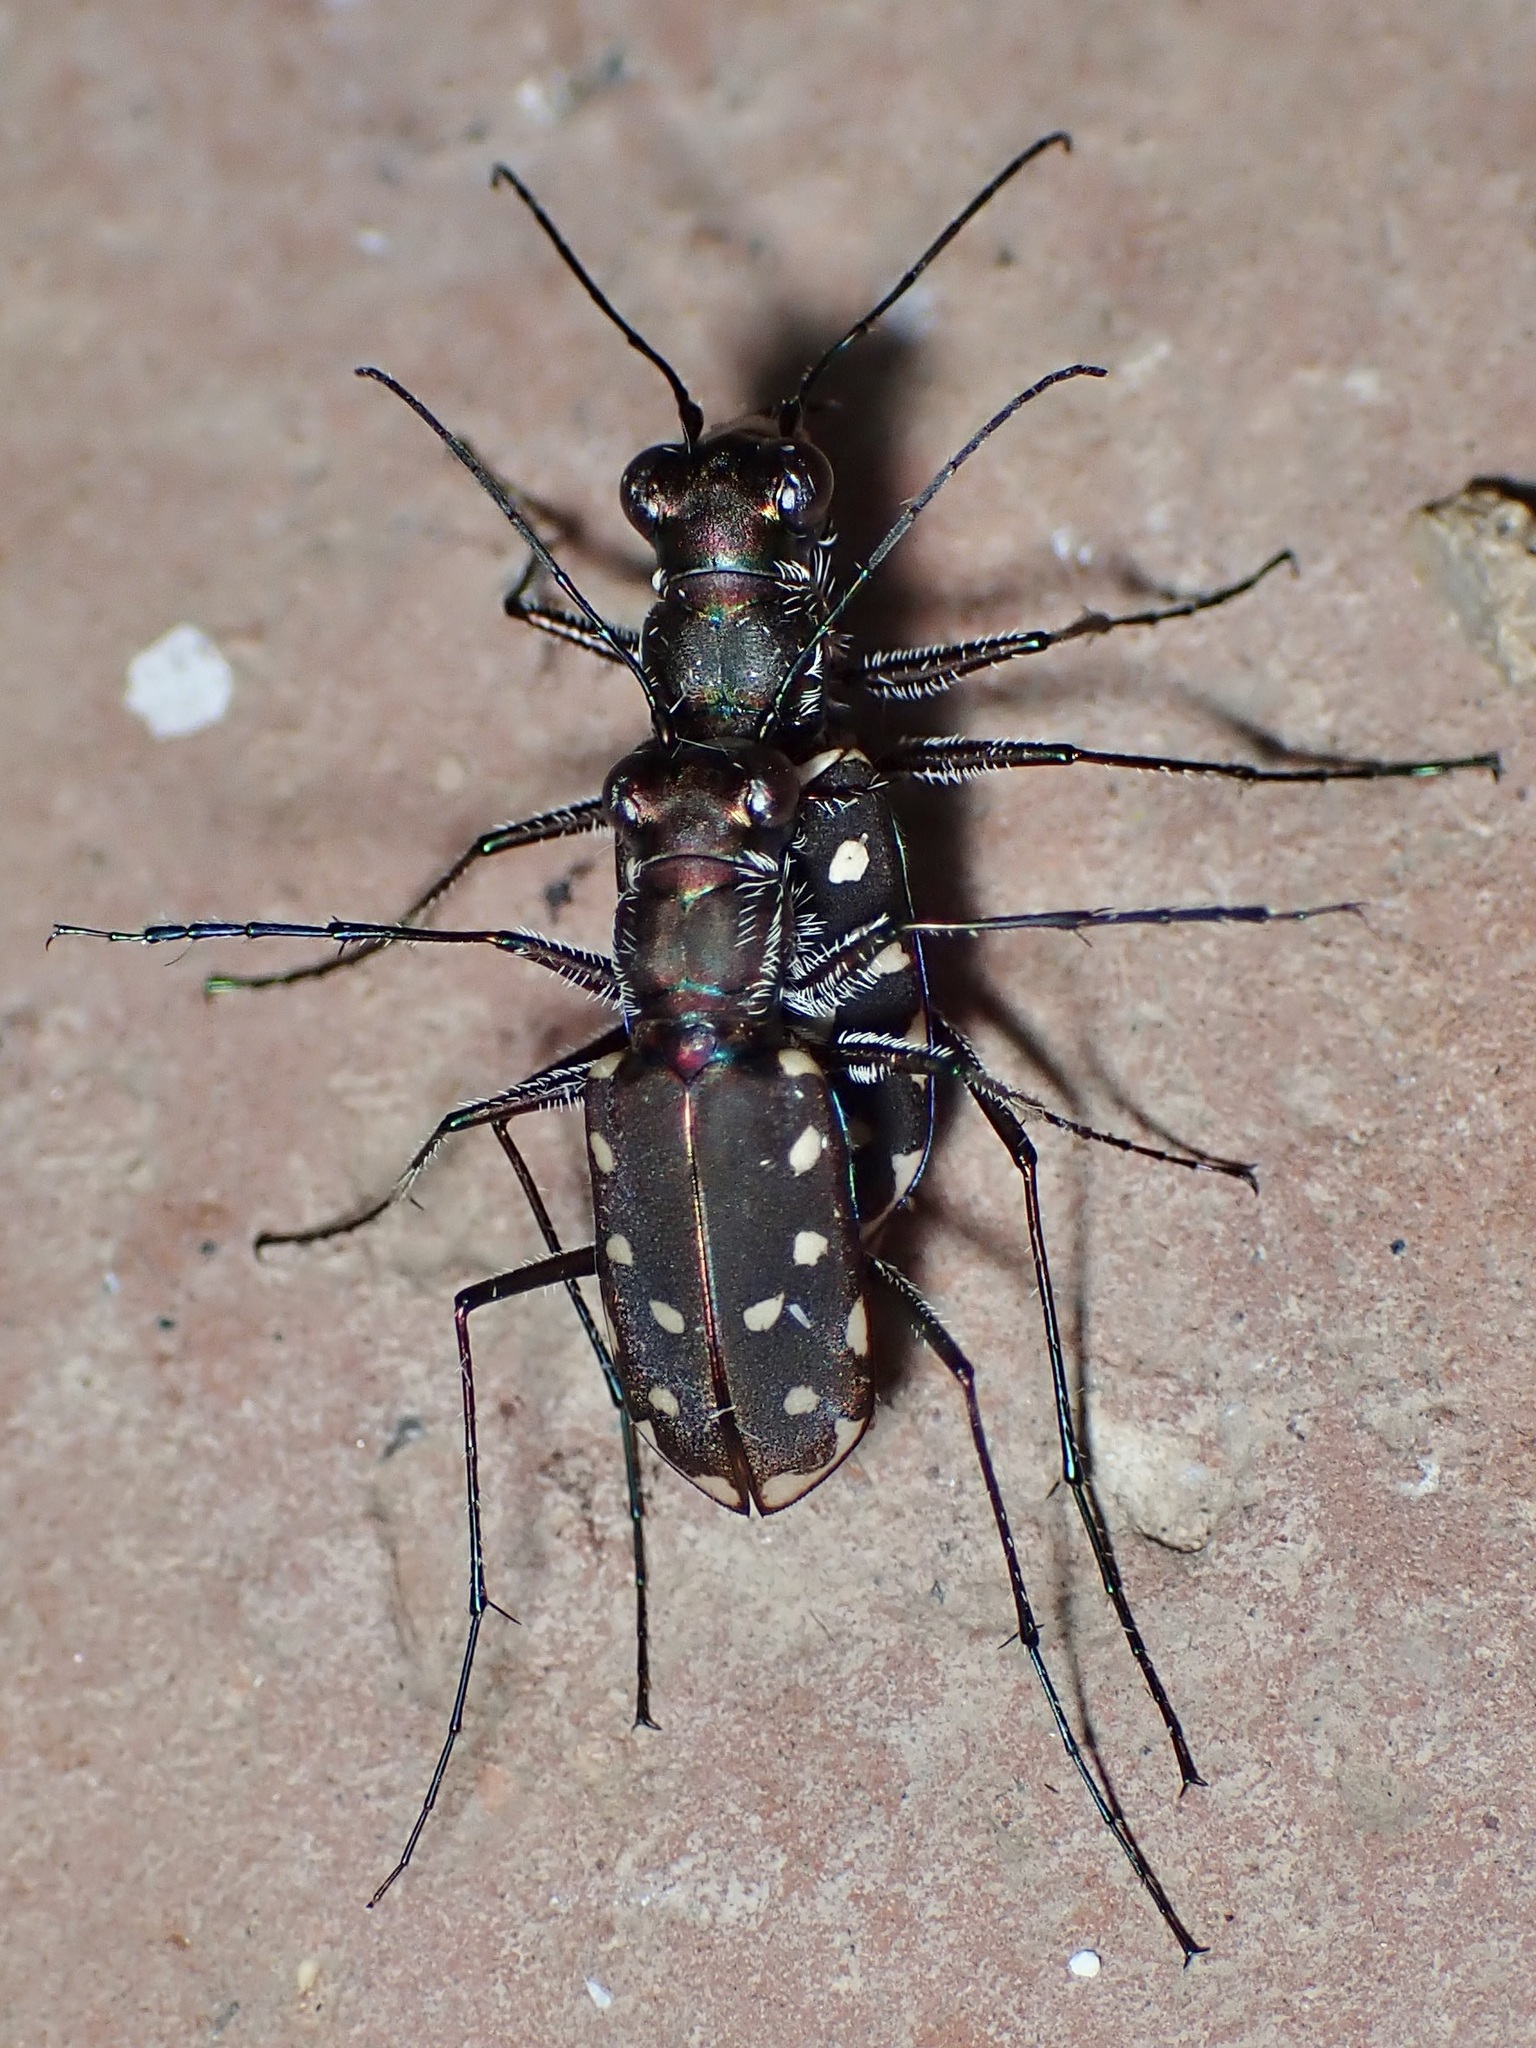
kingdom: Animalia
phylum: Arthropoda
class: Insecta
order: Coleoptera
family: Carabidae
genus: Cicindela
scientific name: Cicindela sedecimpunctata
